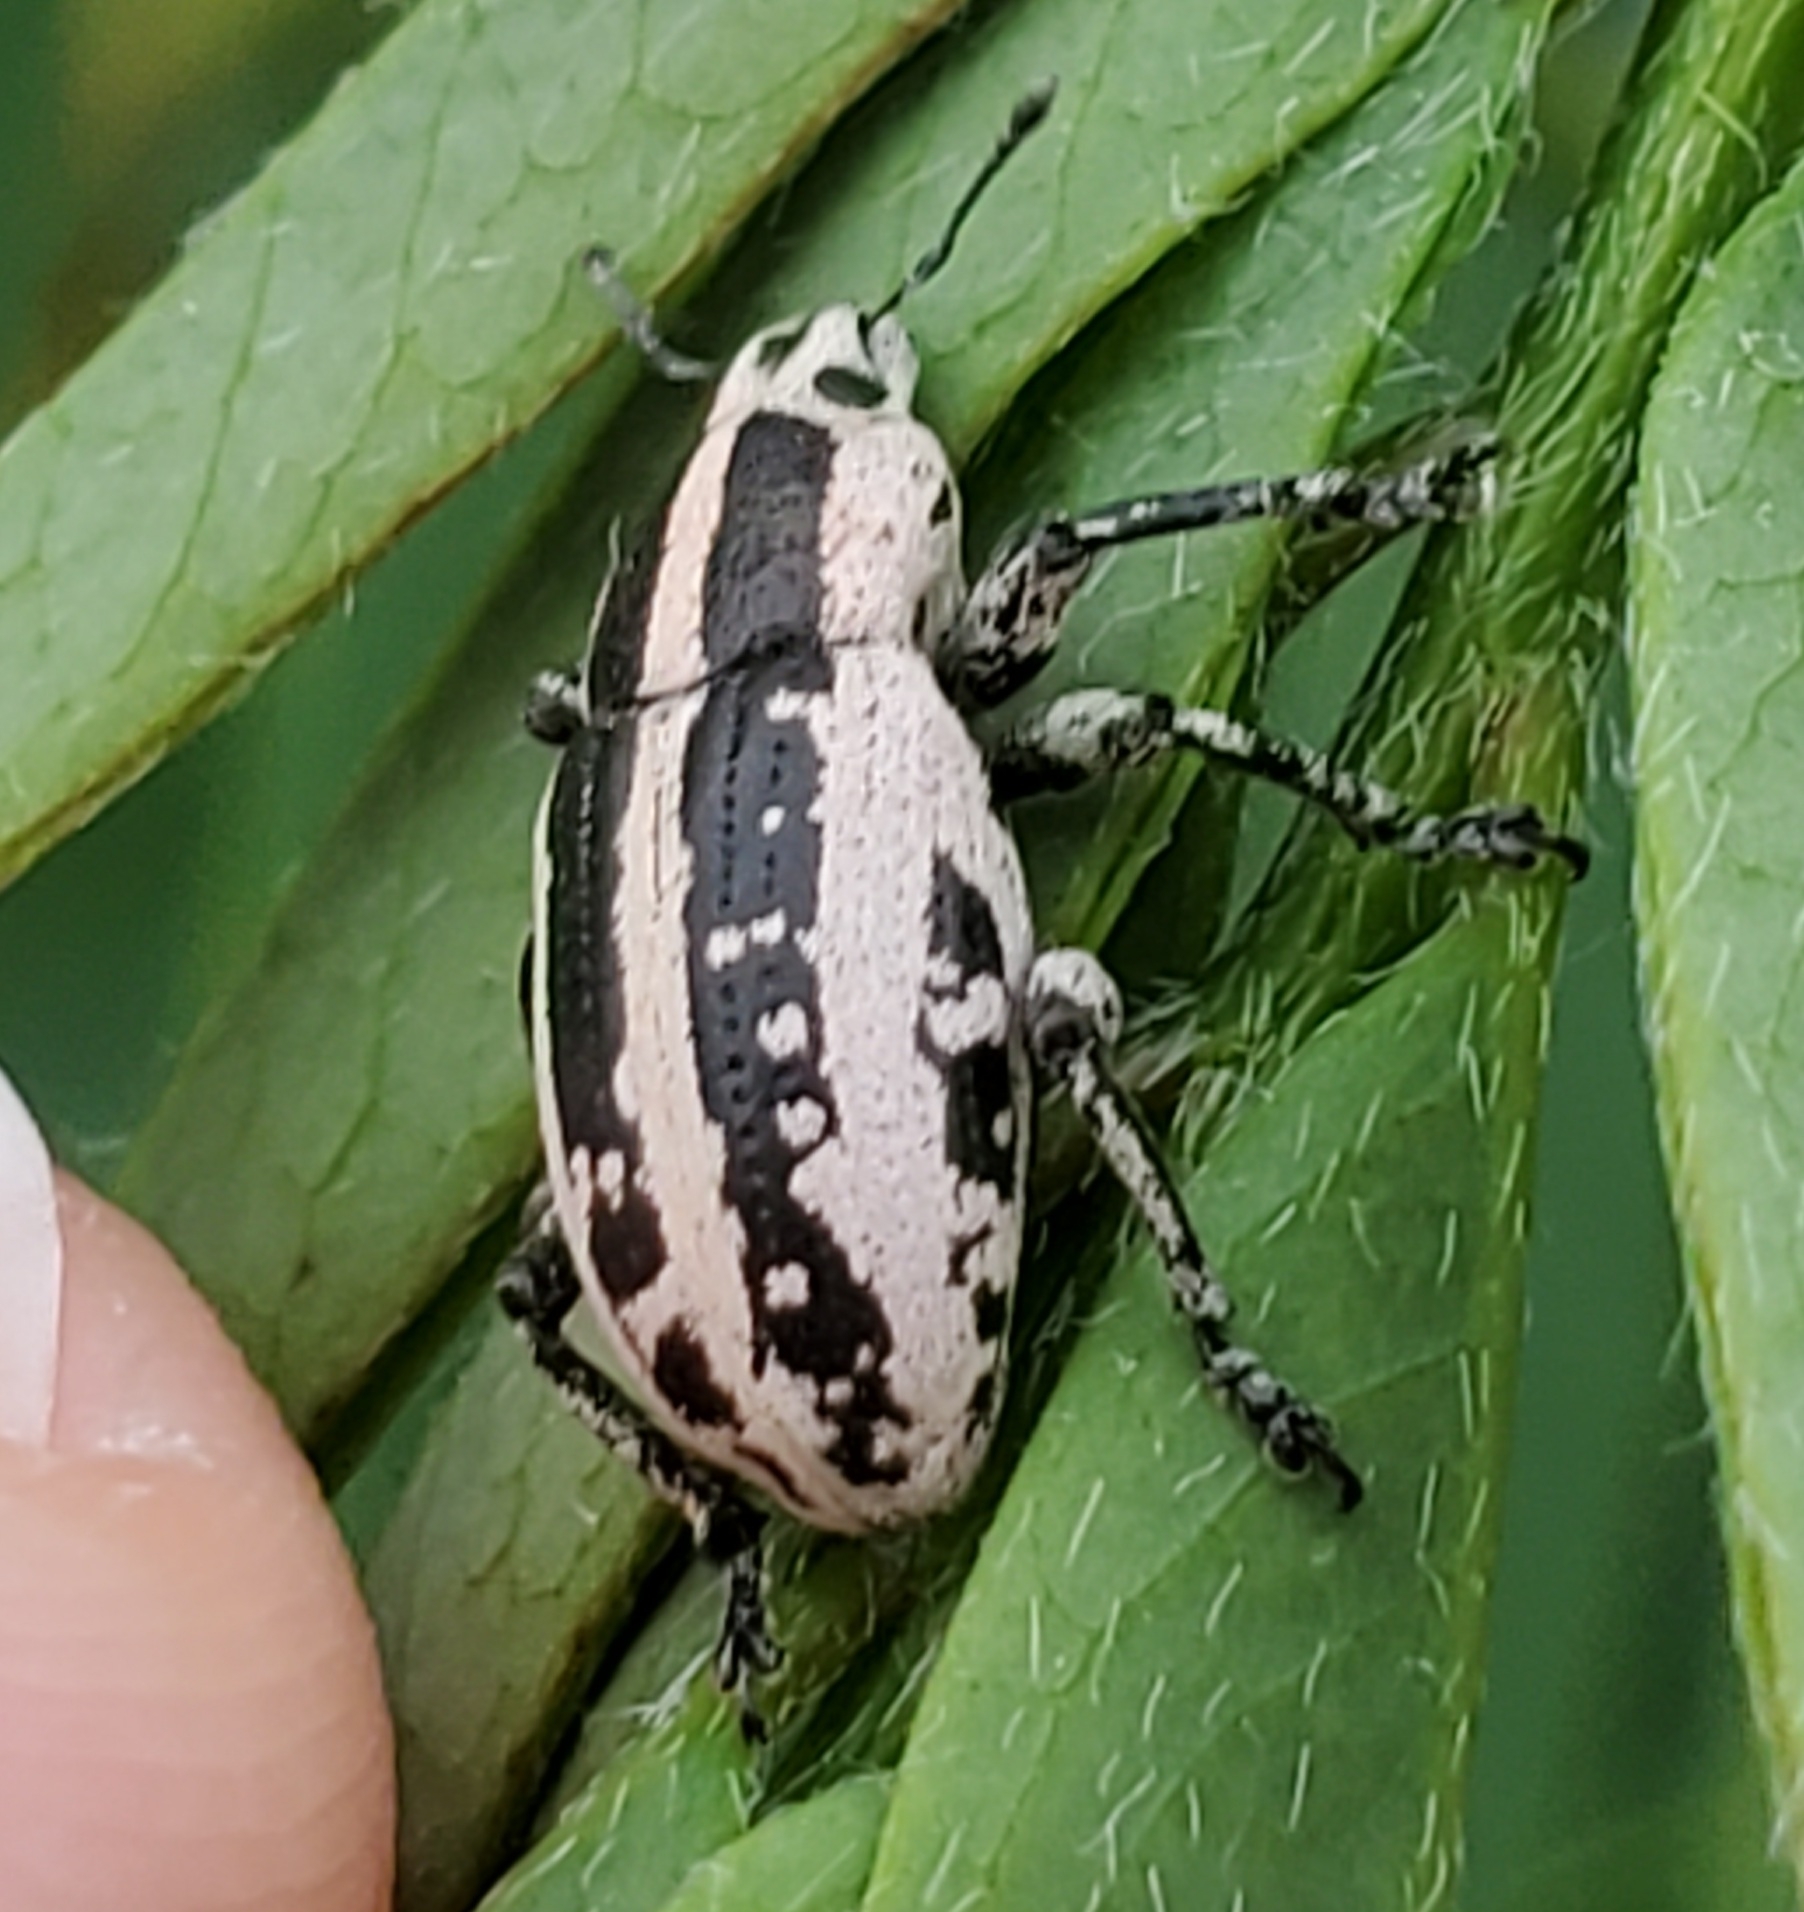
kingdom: Animalia
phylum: Arthropoda
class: Insecta
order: Coleoptera
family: Curculionidae
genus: Eudiagogus
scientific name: Eudiagogus rosenschoeldi
